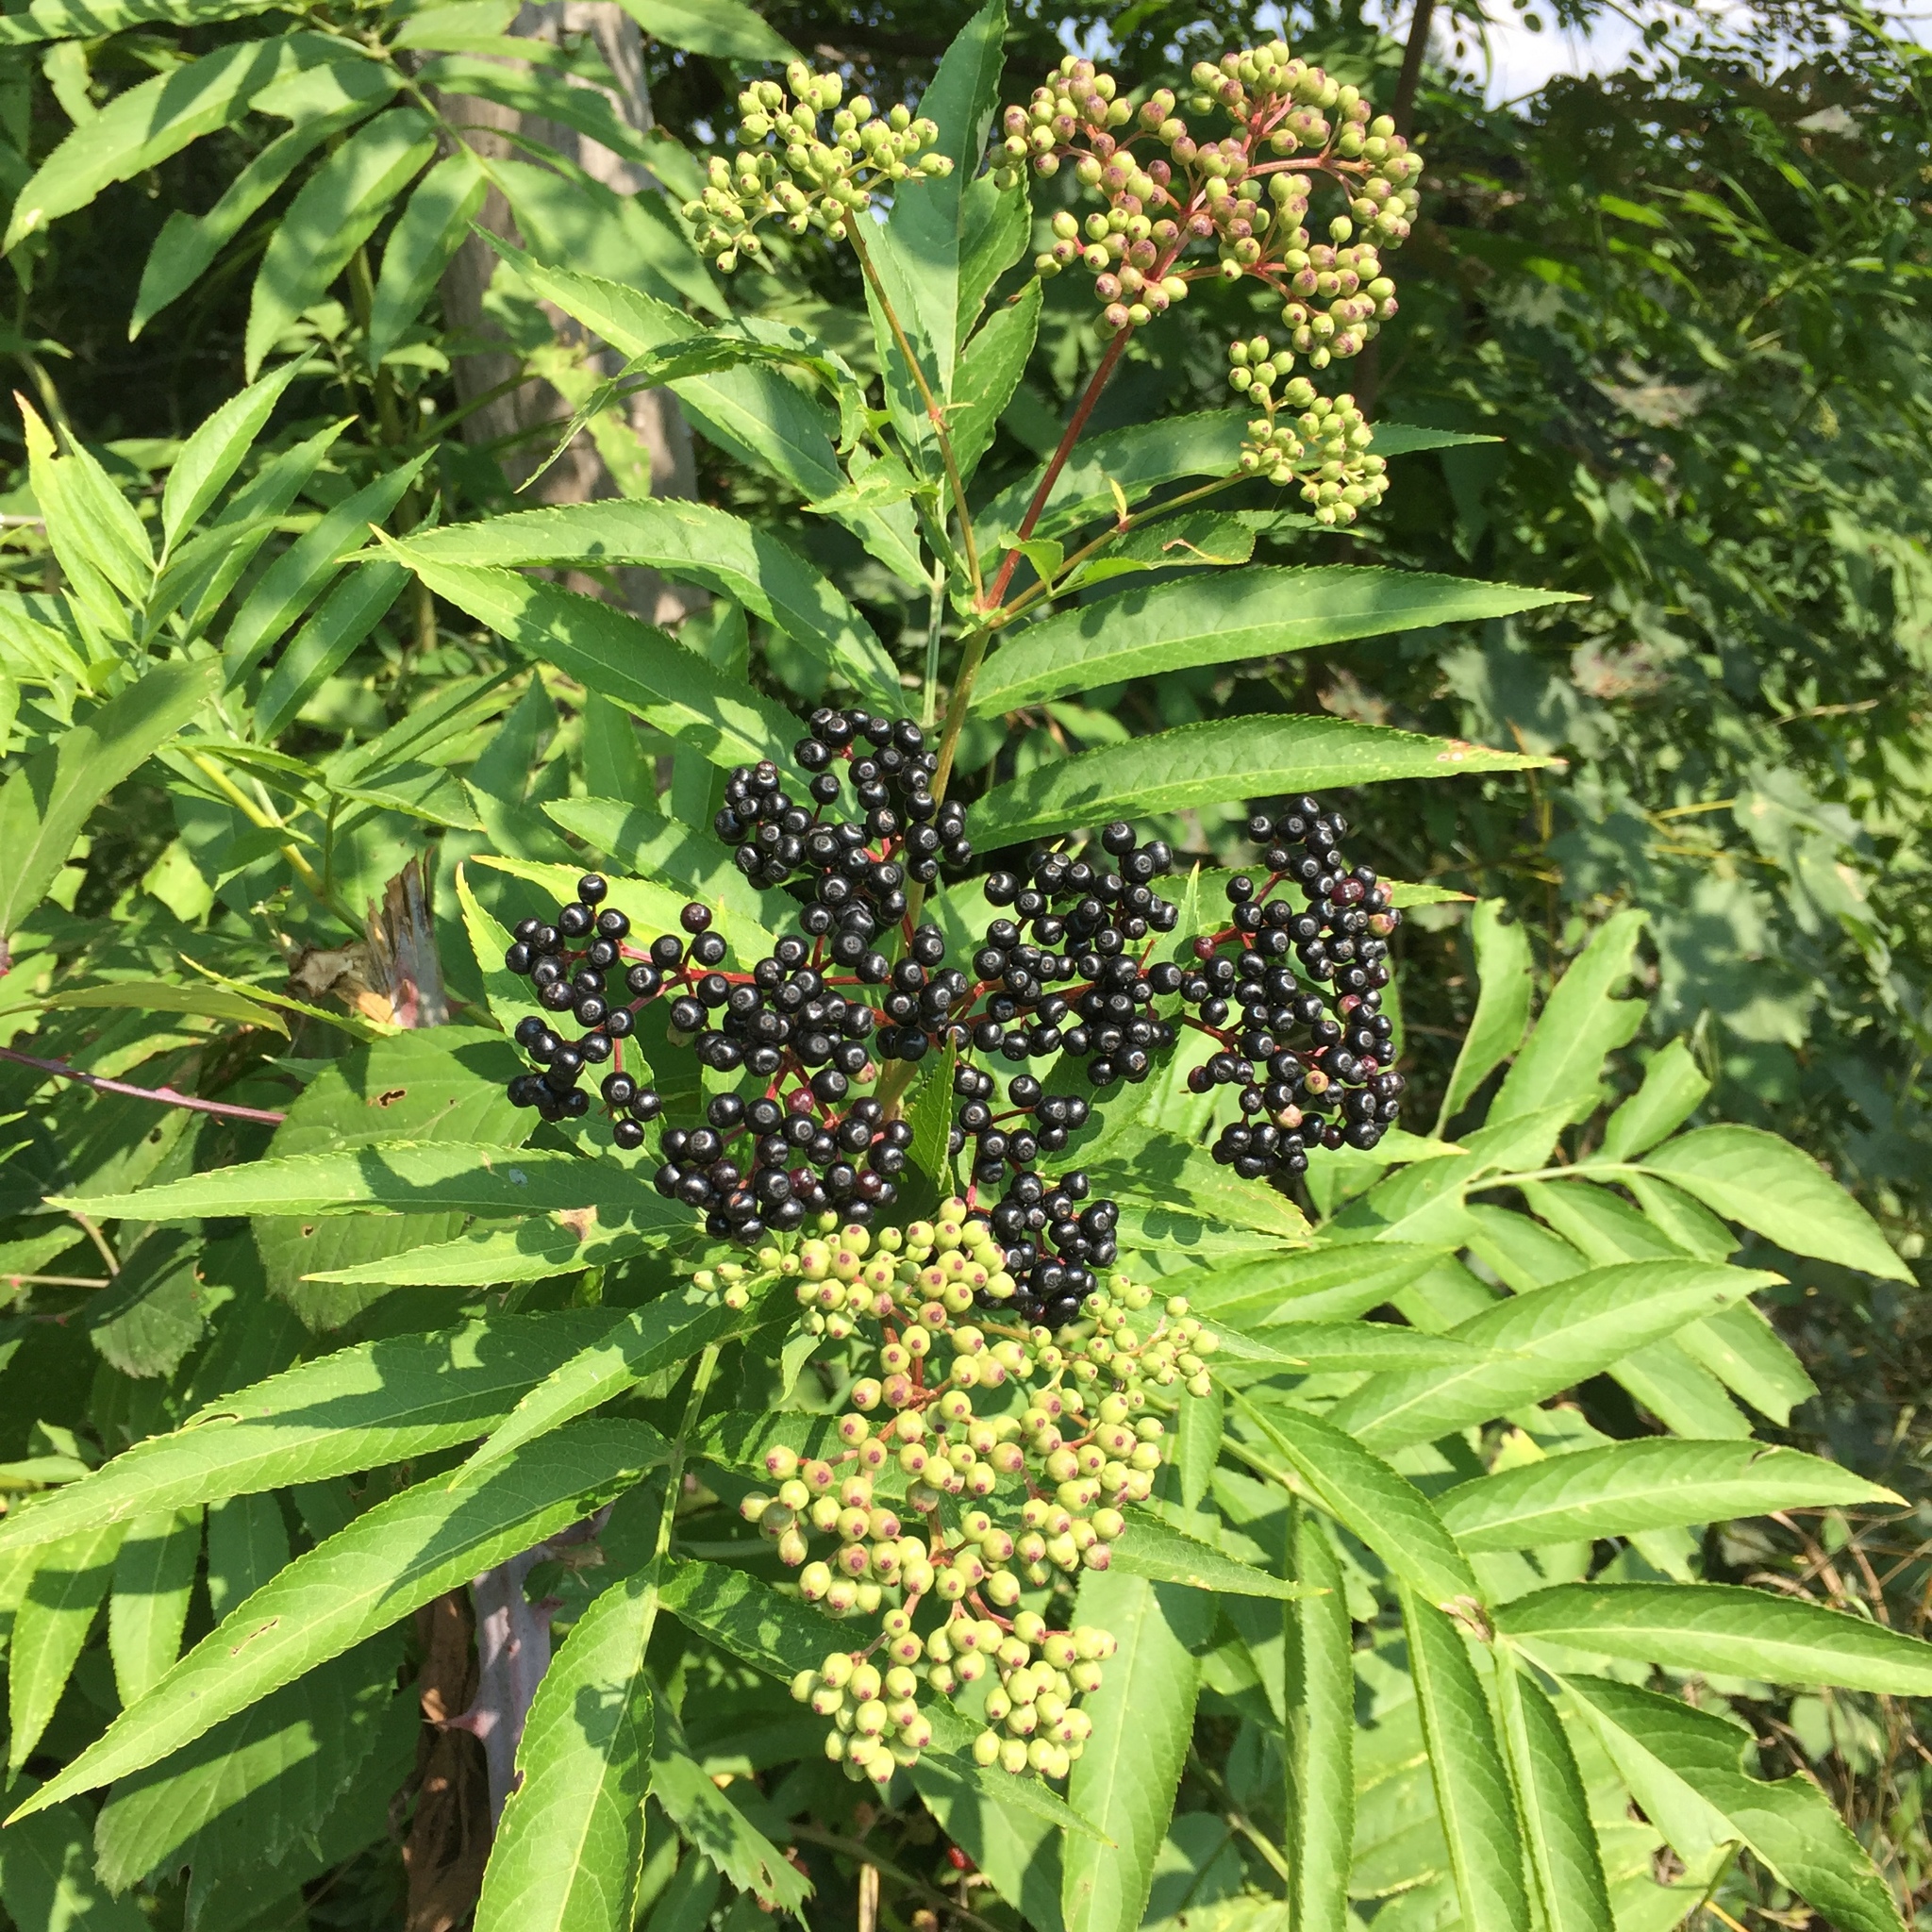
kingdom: Plantae
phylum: Tracheophyta
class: Magnoliopsida
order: Dipsacales
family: Viburnaceae
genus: Sambucus
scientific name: Sambucus ebulus
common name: Dwarf elder
